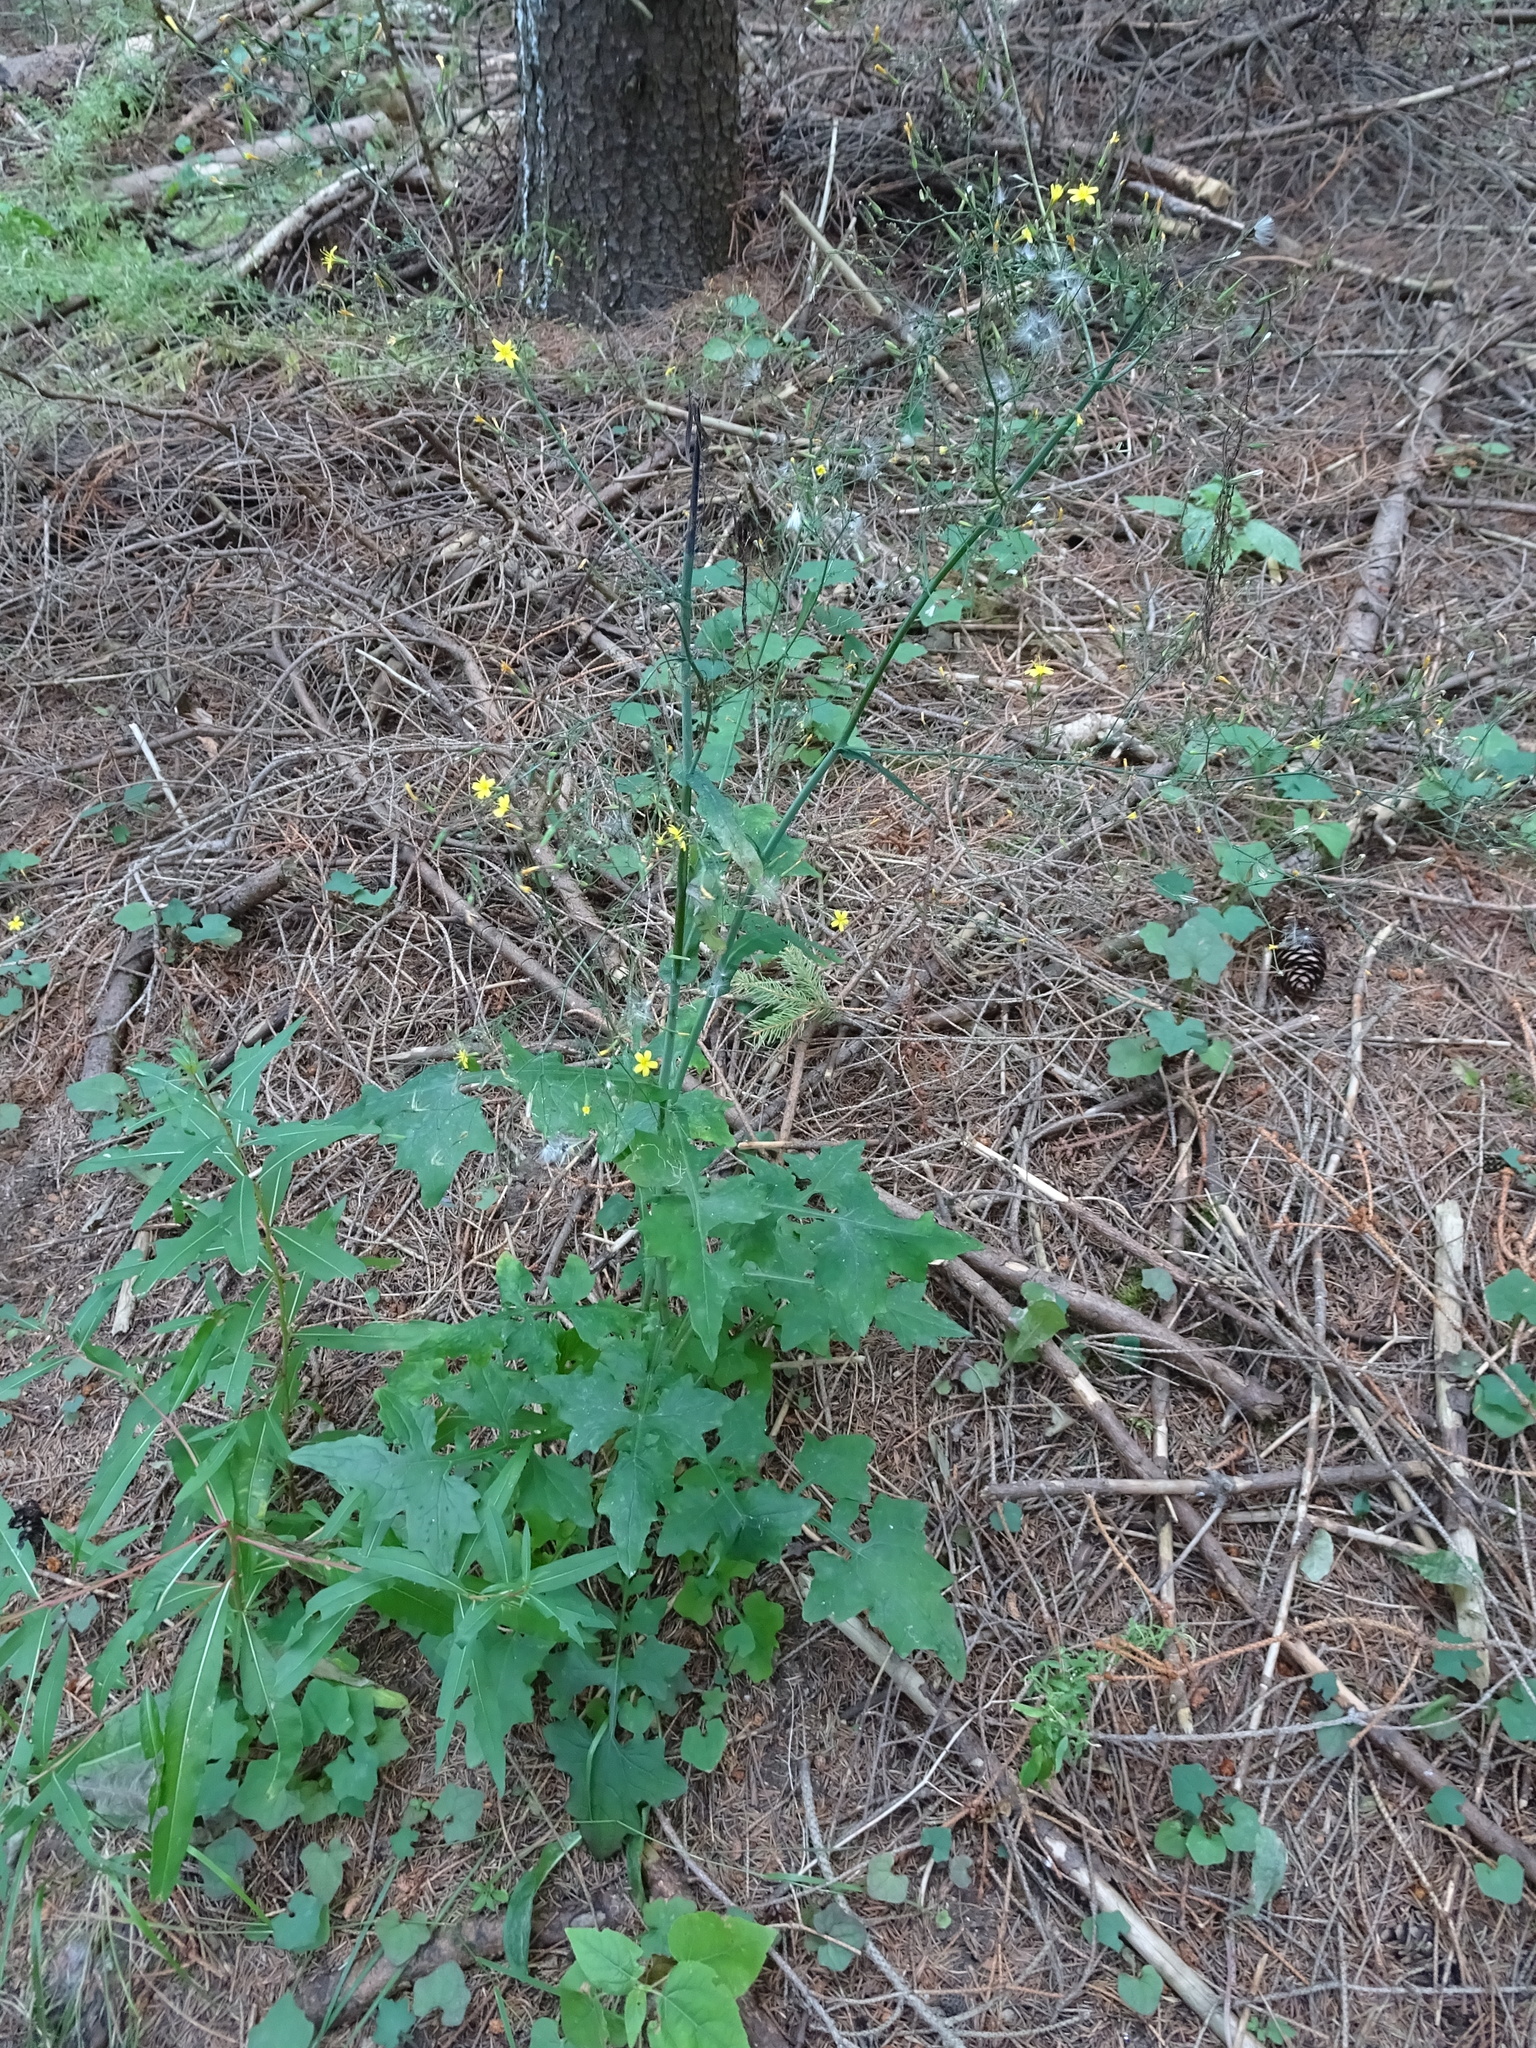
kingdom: Plantae
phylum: Tracheophyta
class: Magnoliopsida
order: Asterales
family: Asteraceae
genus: Mycelis
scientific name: Mycelis muralis
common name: Wall lettuce
